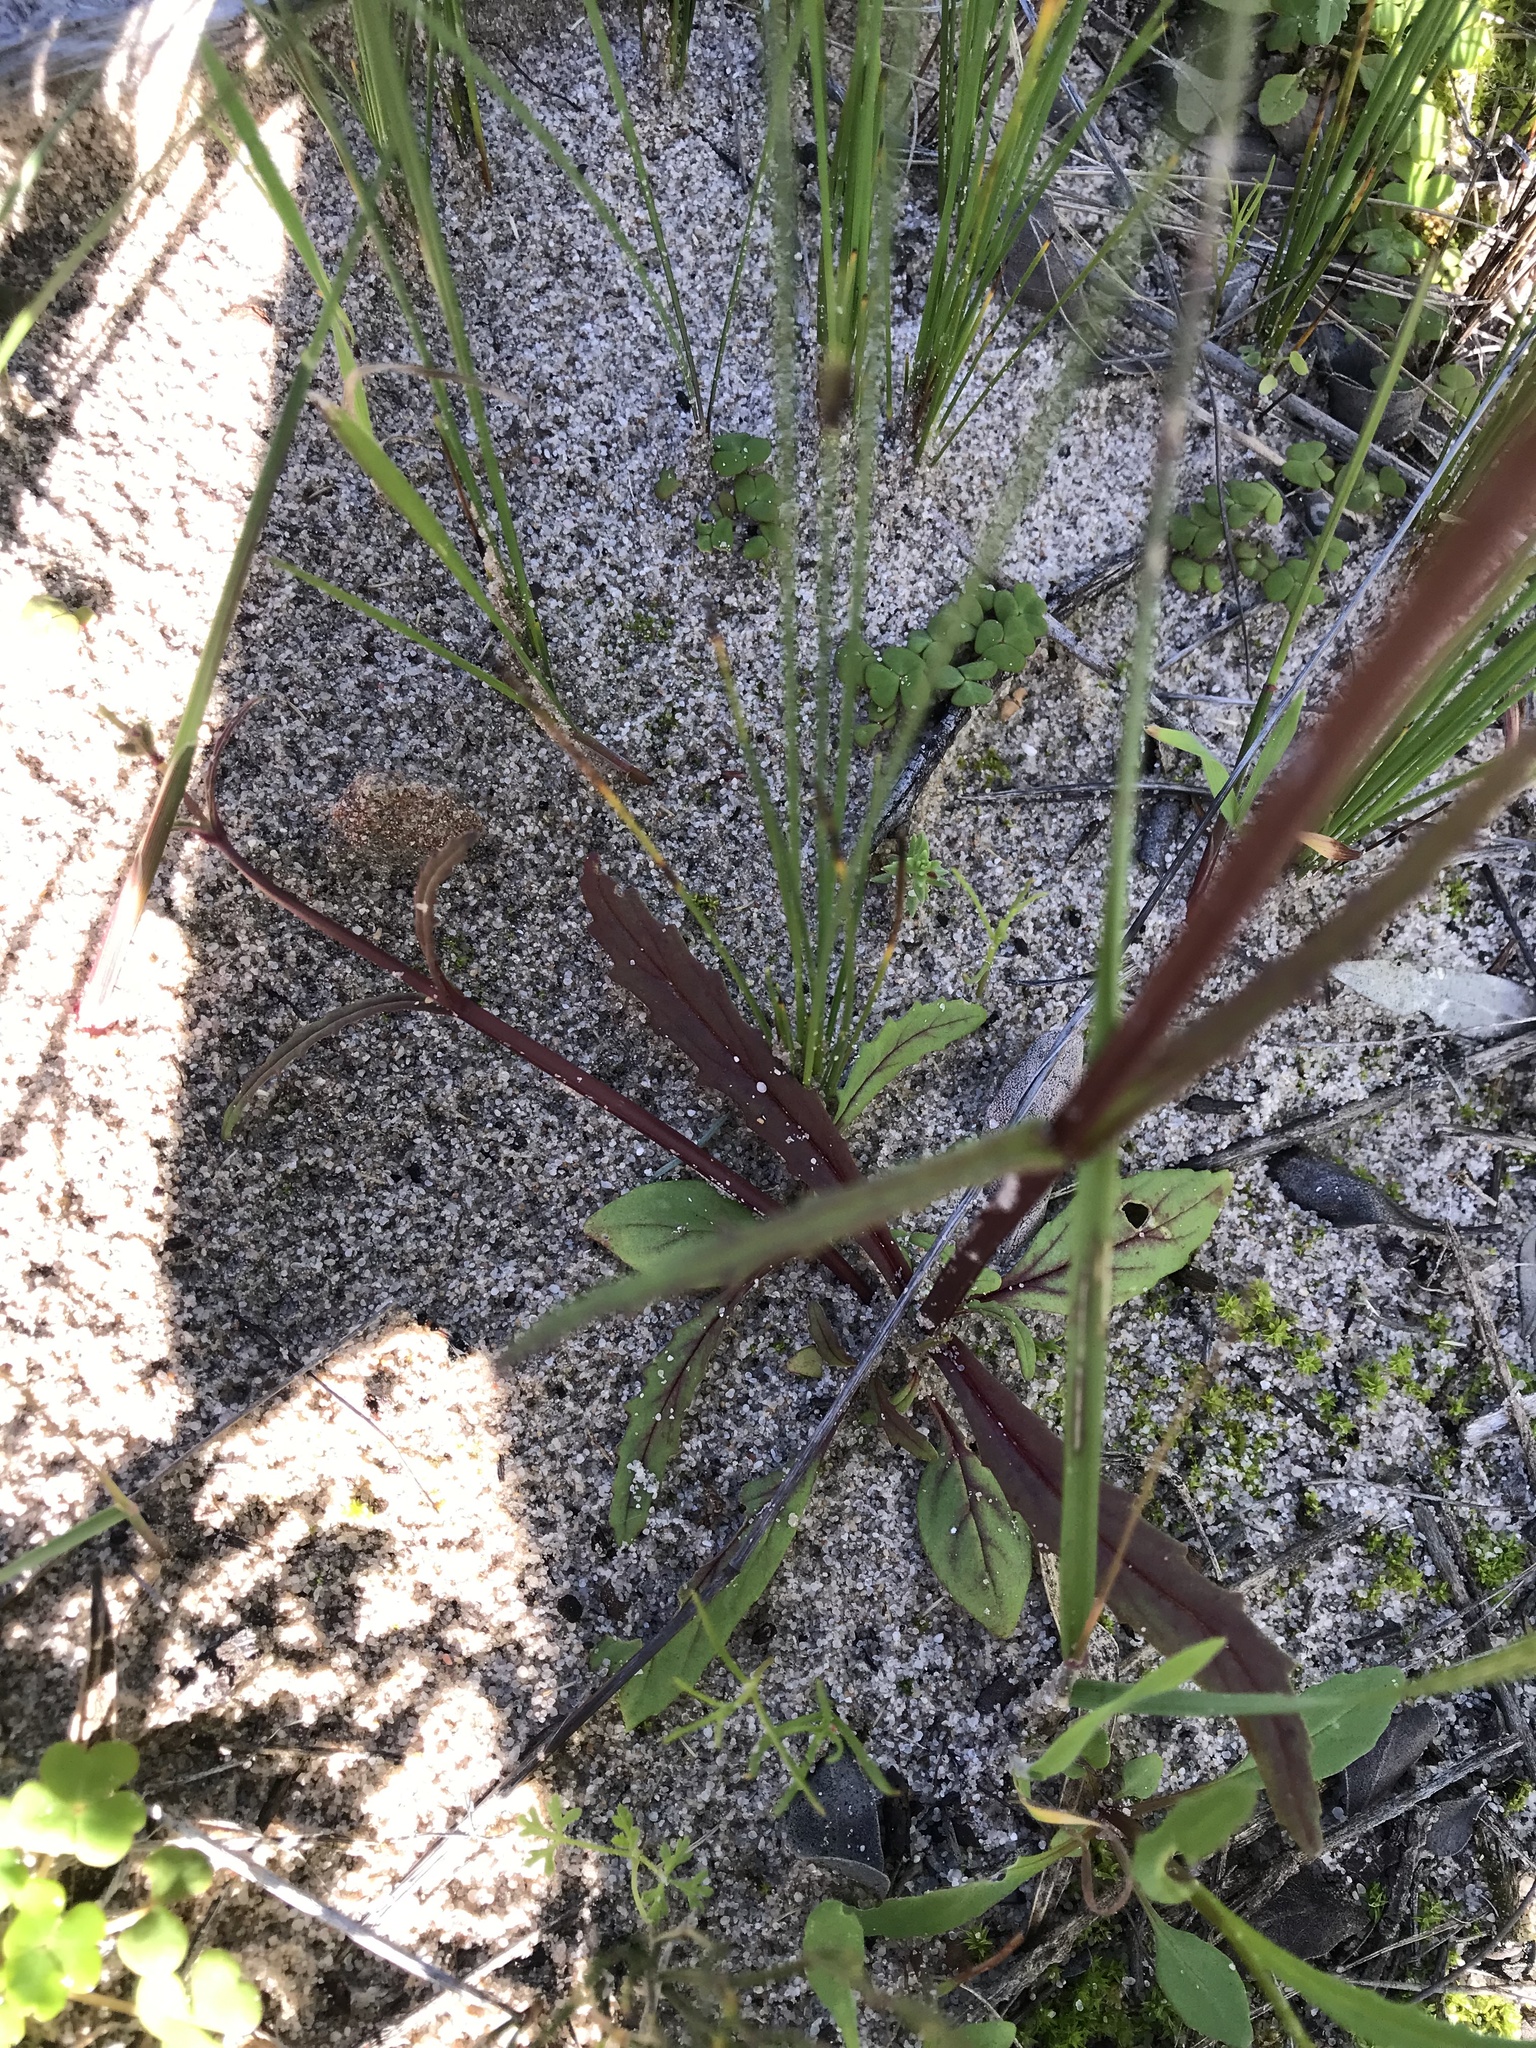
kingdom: Plantae
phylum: Tracheophyta
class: Magnoliopsida
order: Lamiales
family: Scrophulariaceae
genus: Nemesia
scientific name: Nemesia affinis
